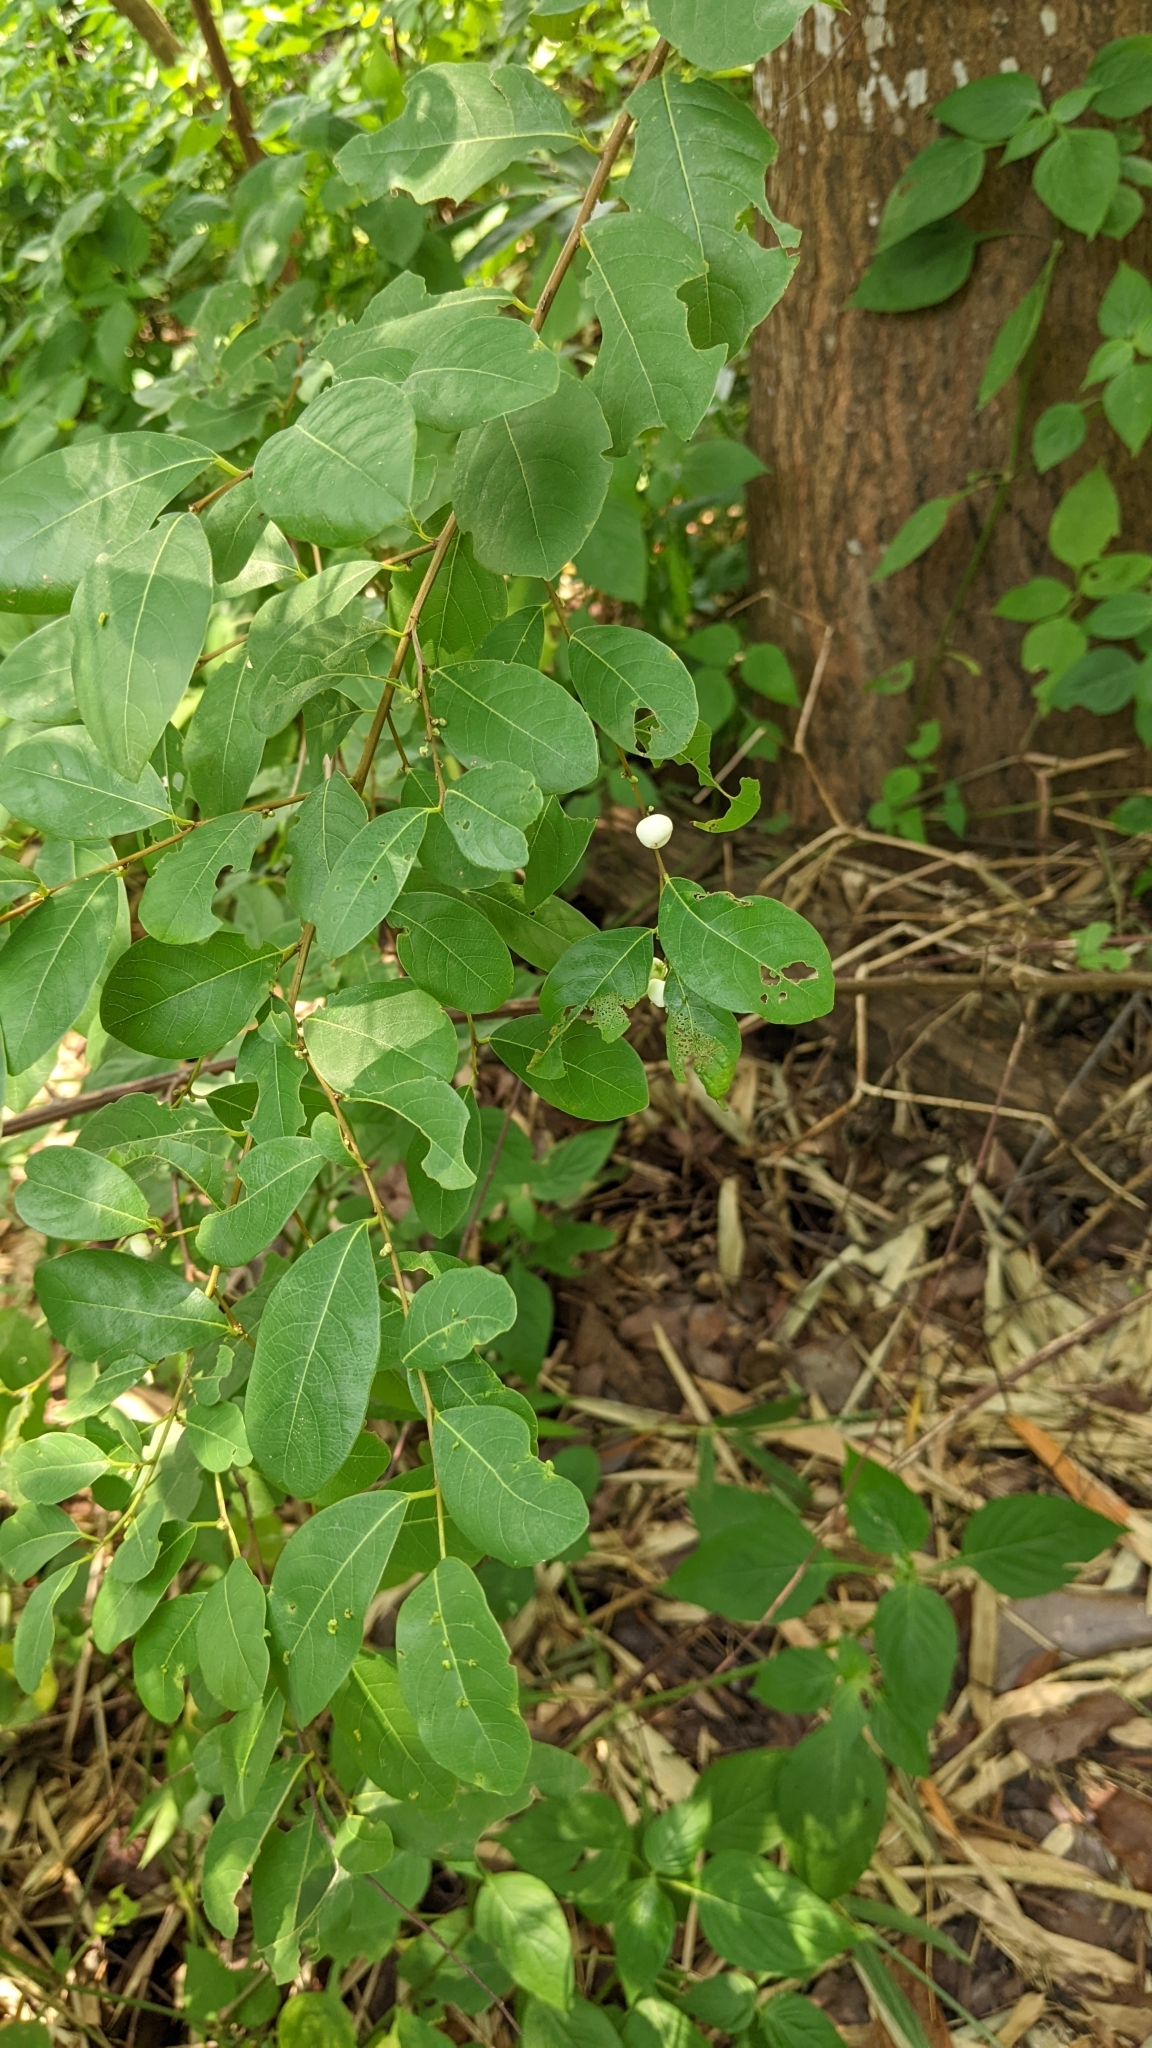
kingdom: Plantae
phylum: Tracheophyta
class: Magnoliopsida
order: Malpighiales
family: Phyllanthaceae
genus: Flueggea
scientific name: Flueggea virosa
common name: Common bushweed
